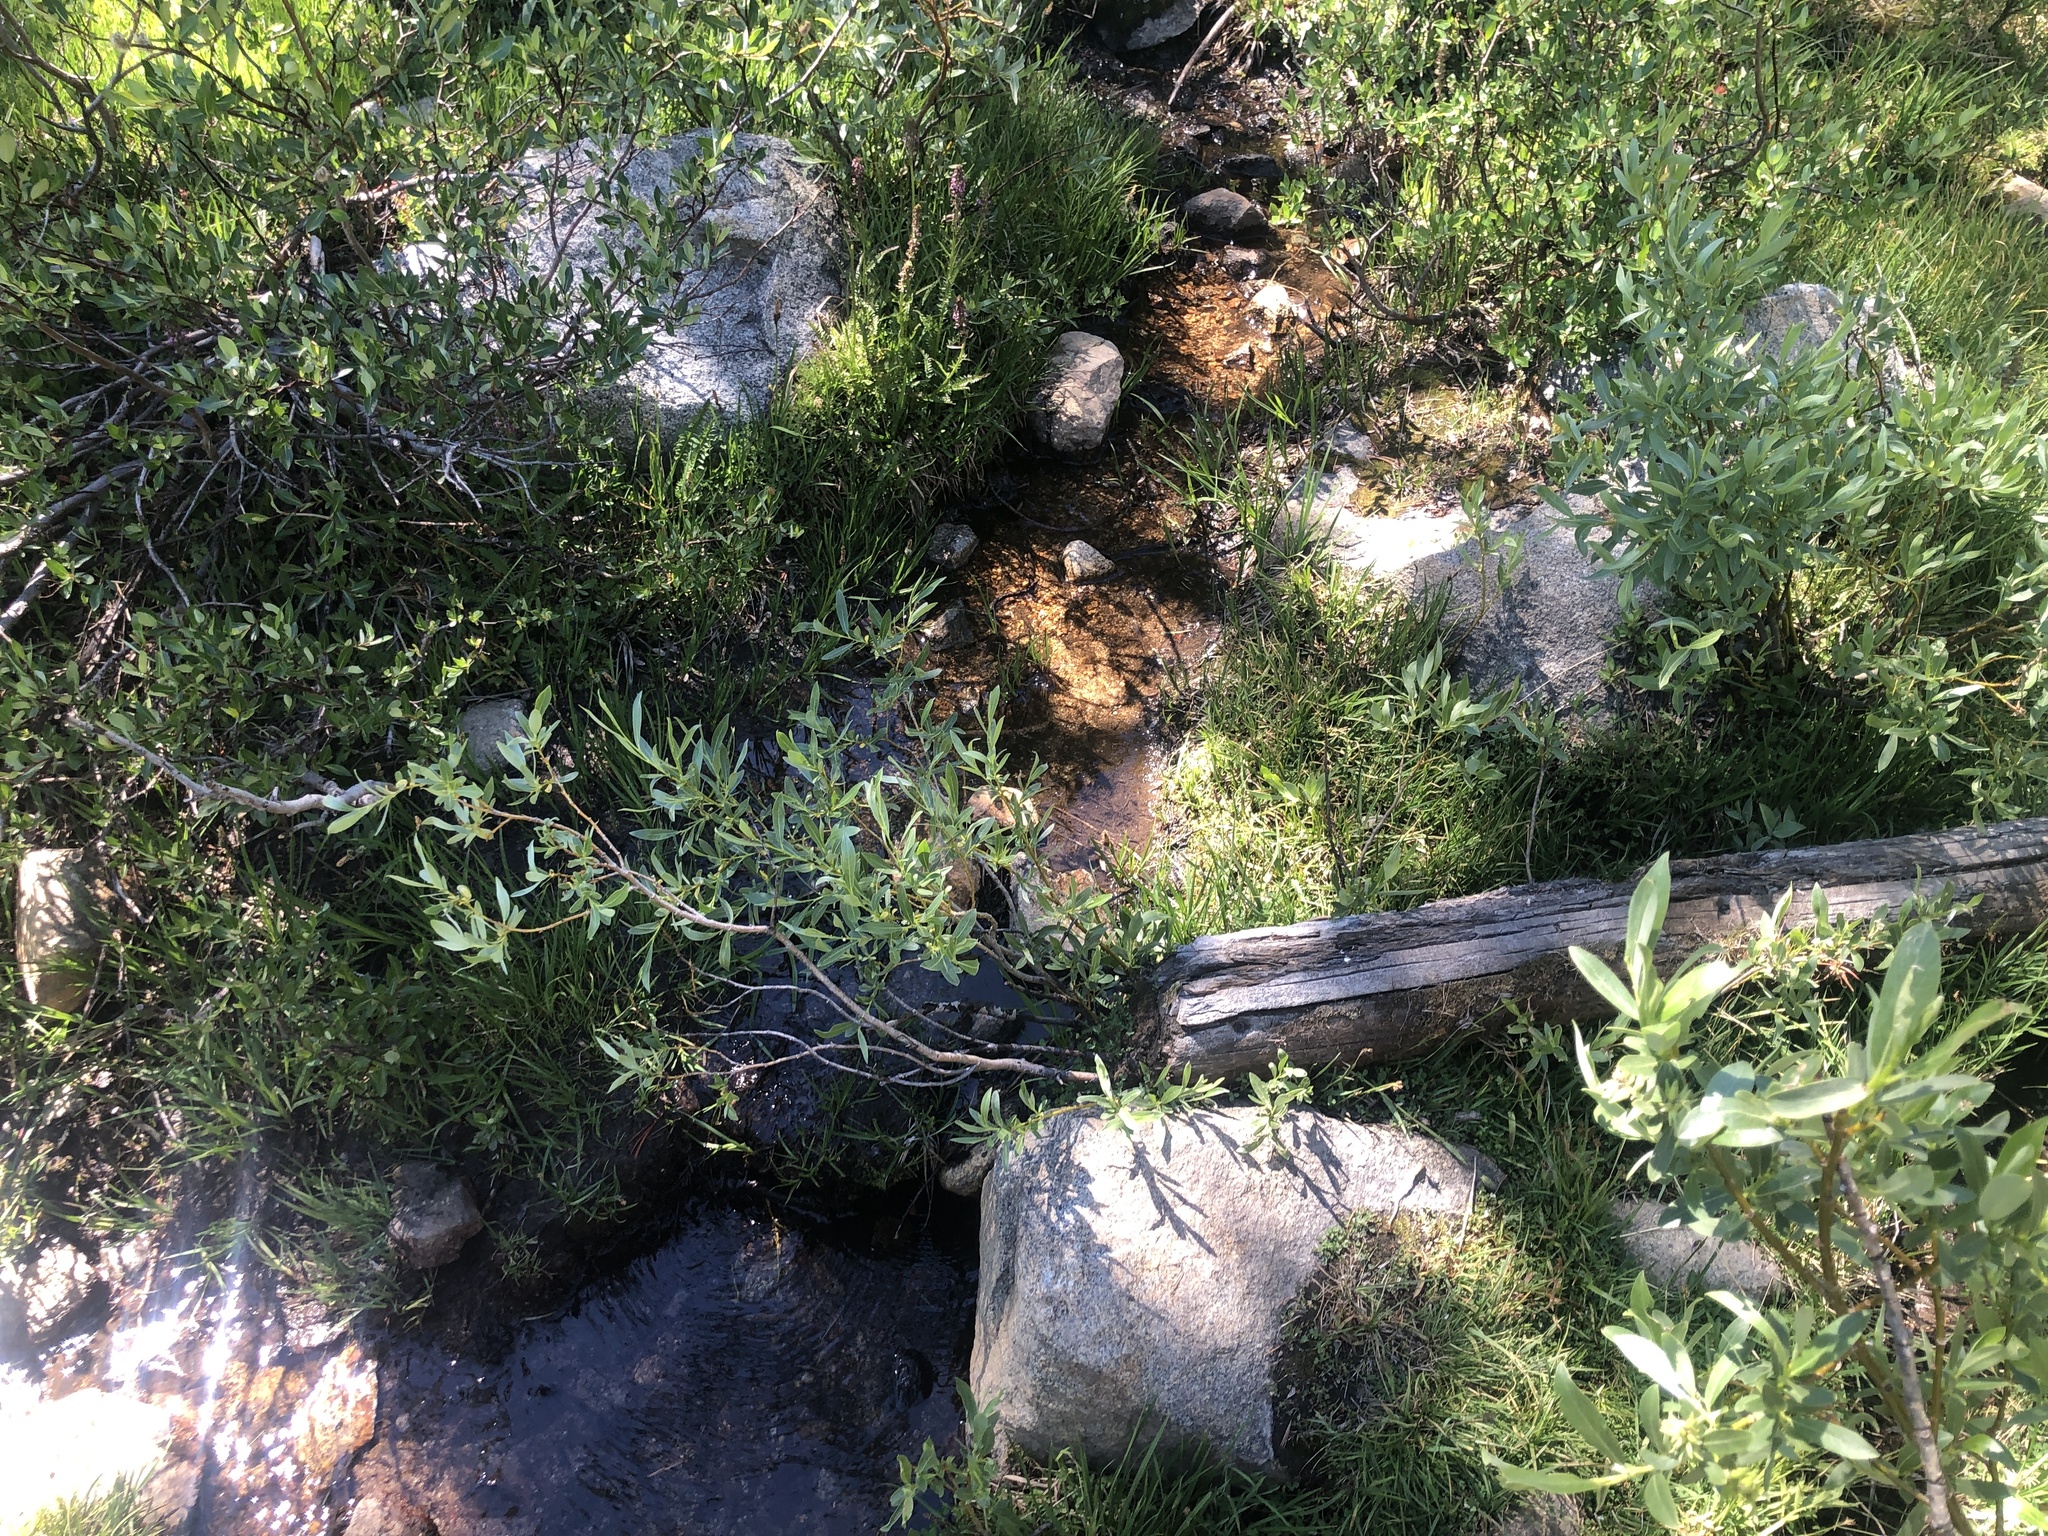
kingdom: Fungi
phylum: Basidiomycota
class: Agaricomycetes
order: Agaricales
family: Strophariaceae
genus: Leratiomyces
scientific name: Leratiomyces cucullatus
